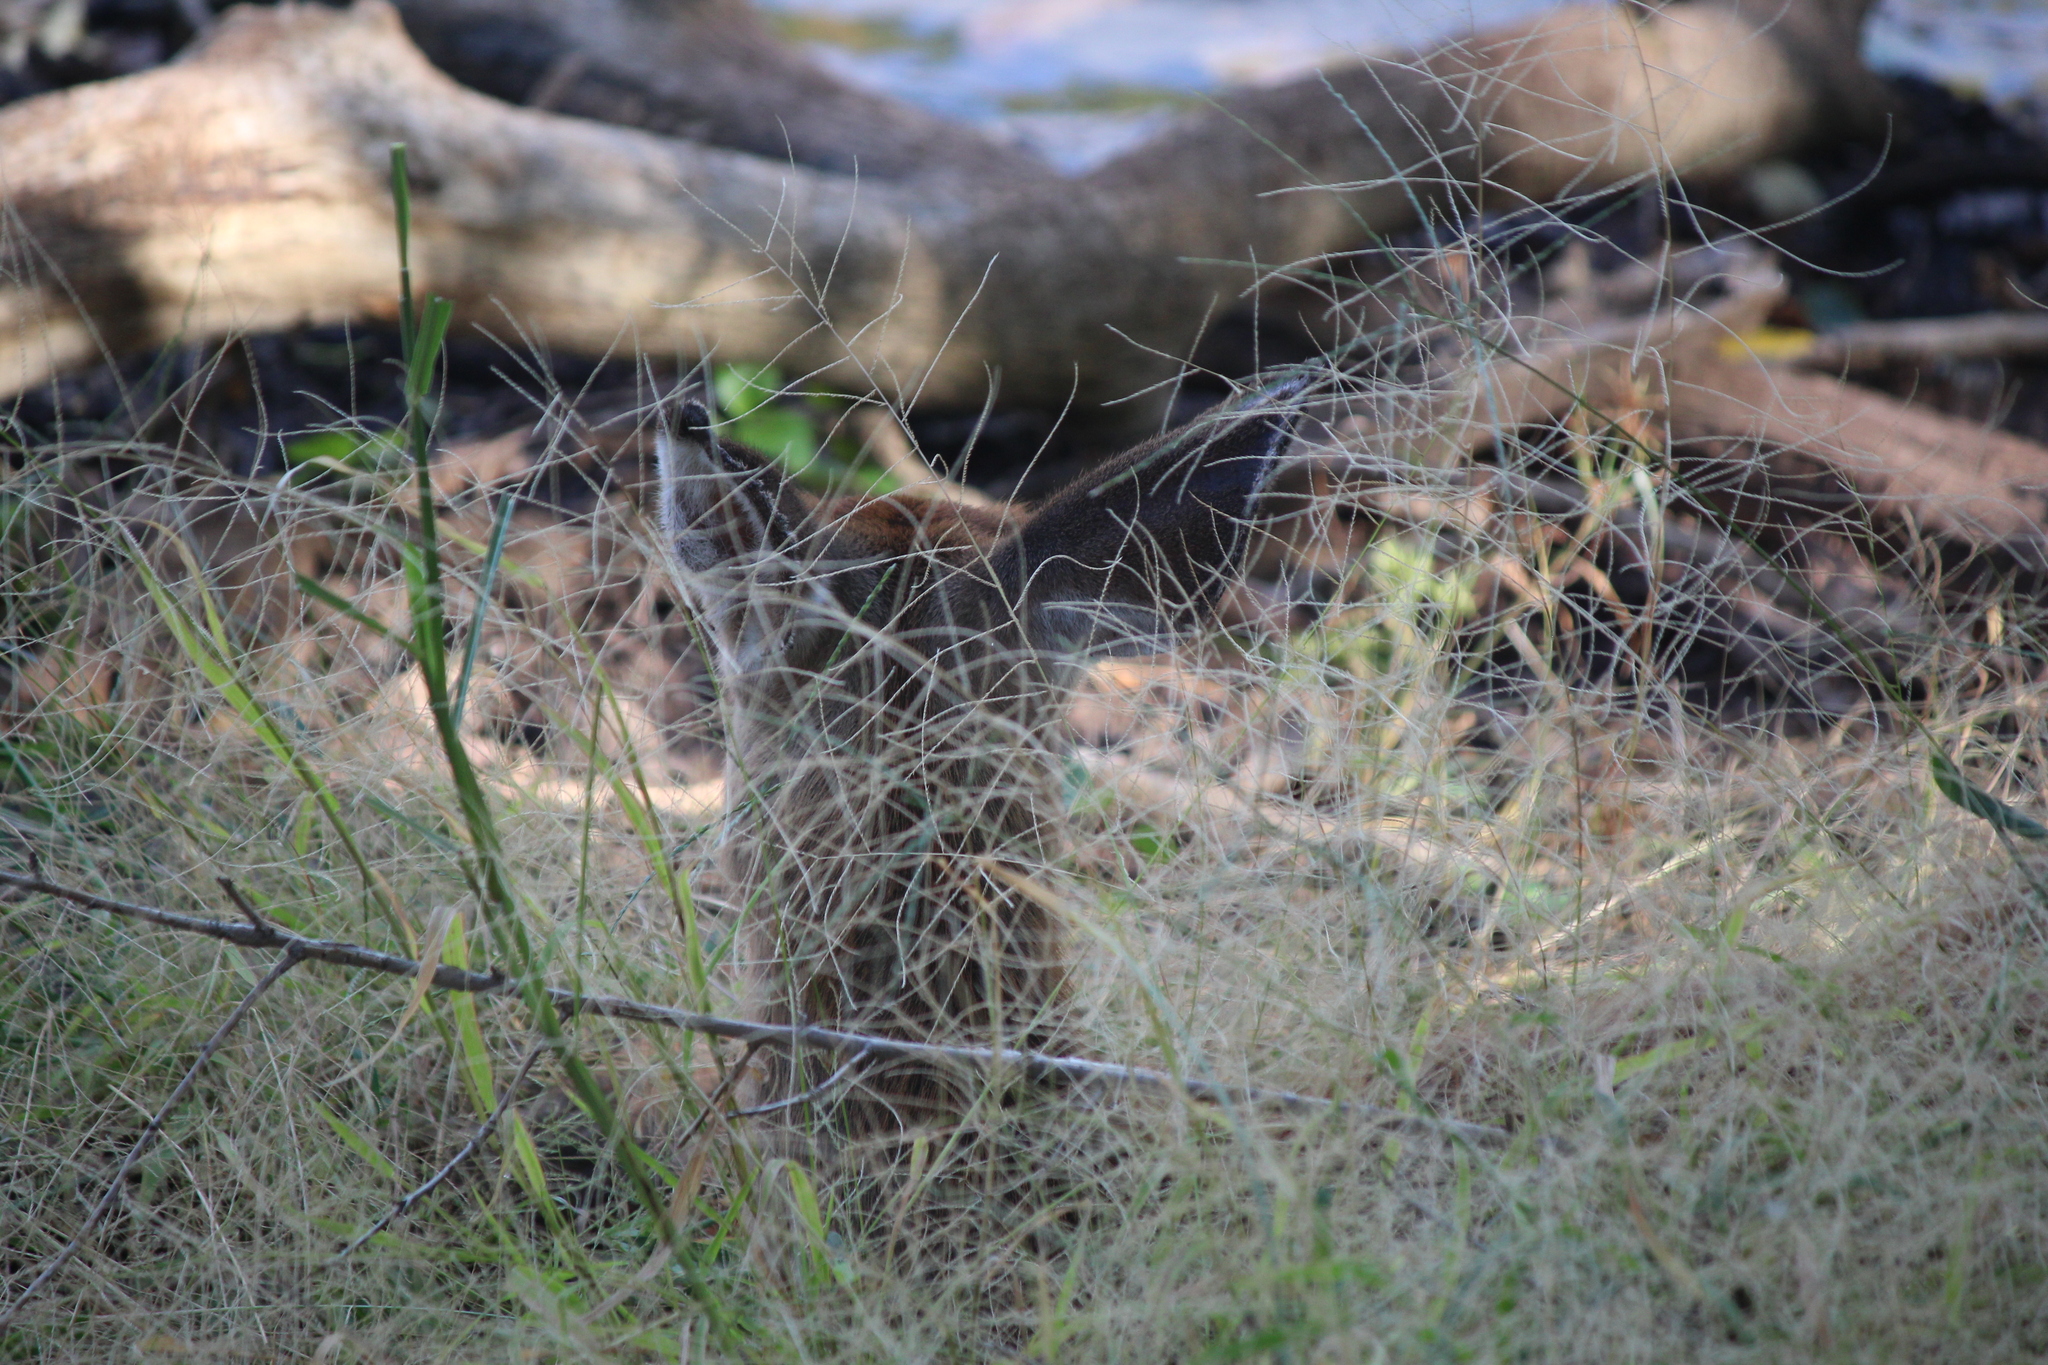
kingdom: Animalia
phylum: Chordata
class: Mammalia
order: Artiodactyla
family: Cervidae
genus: Odocoileus
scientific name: Odocoileus virginianus
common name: White-tailed deer
